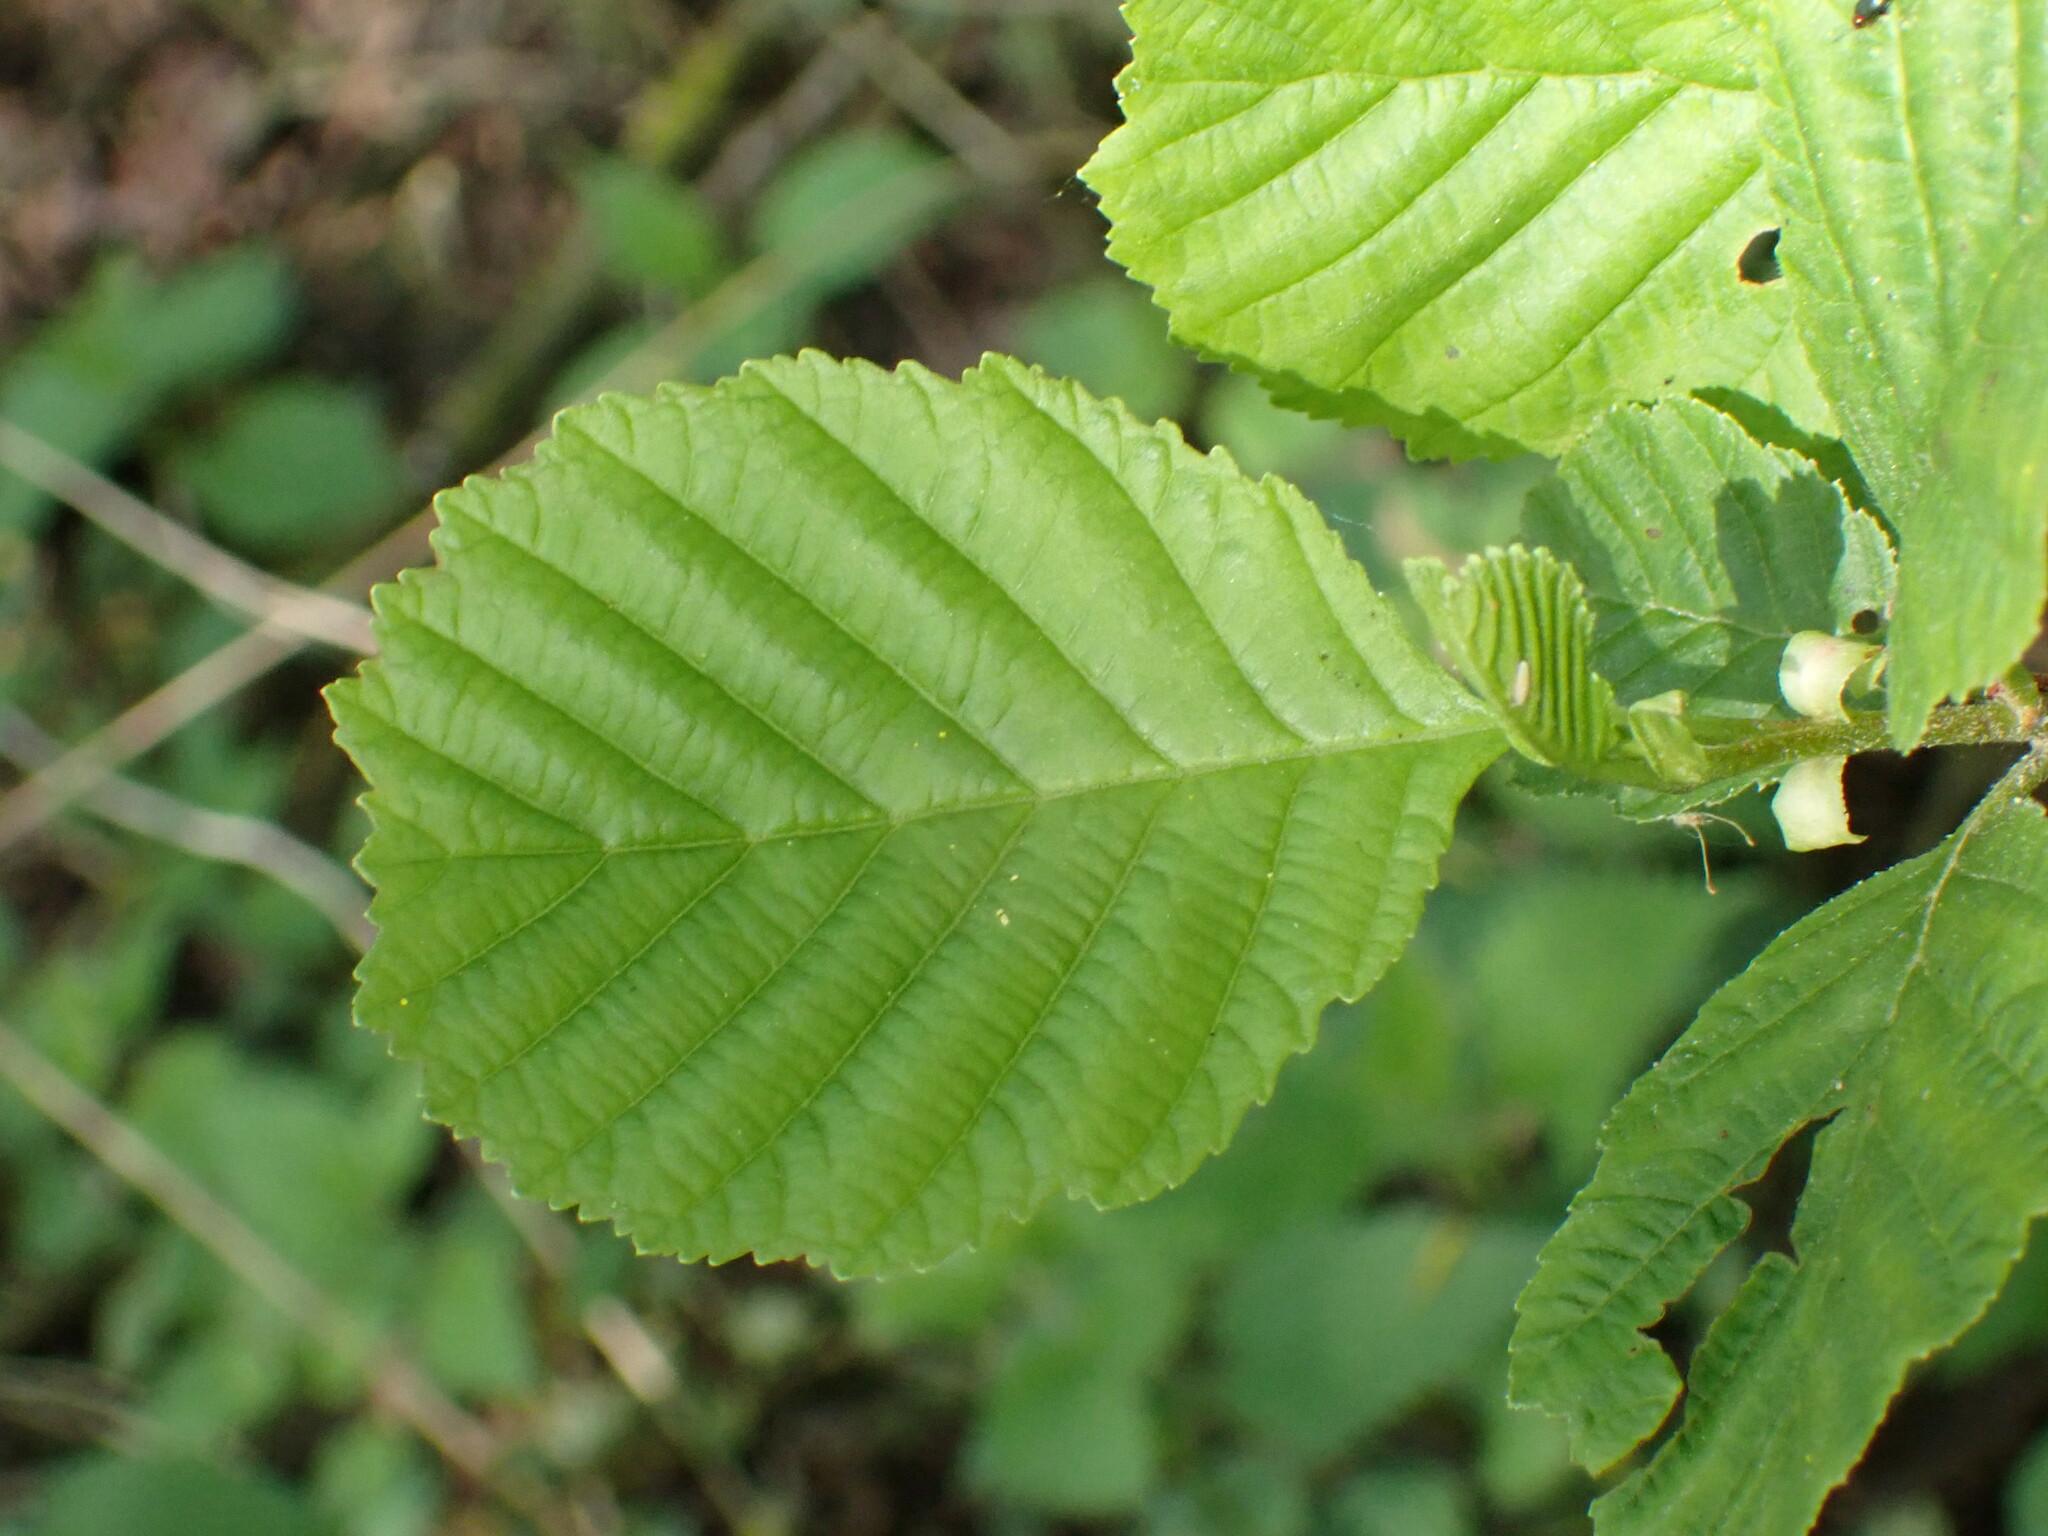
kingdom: Plantae
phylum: Tracheophyta
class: Magnoliopsida
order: Fagales
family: Betulaceae
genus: Alnus
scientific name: Alnus glutinosa
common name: Black alder
